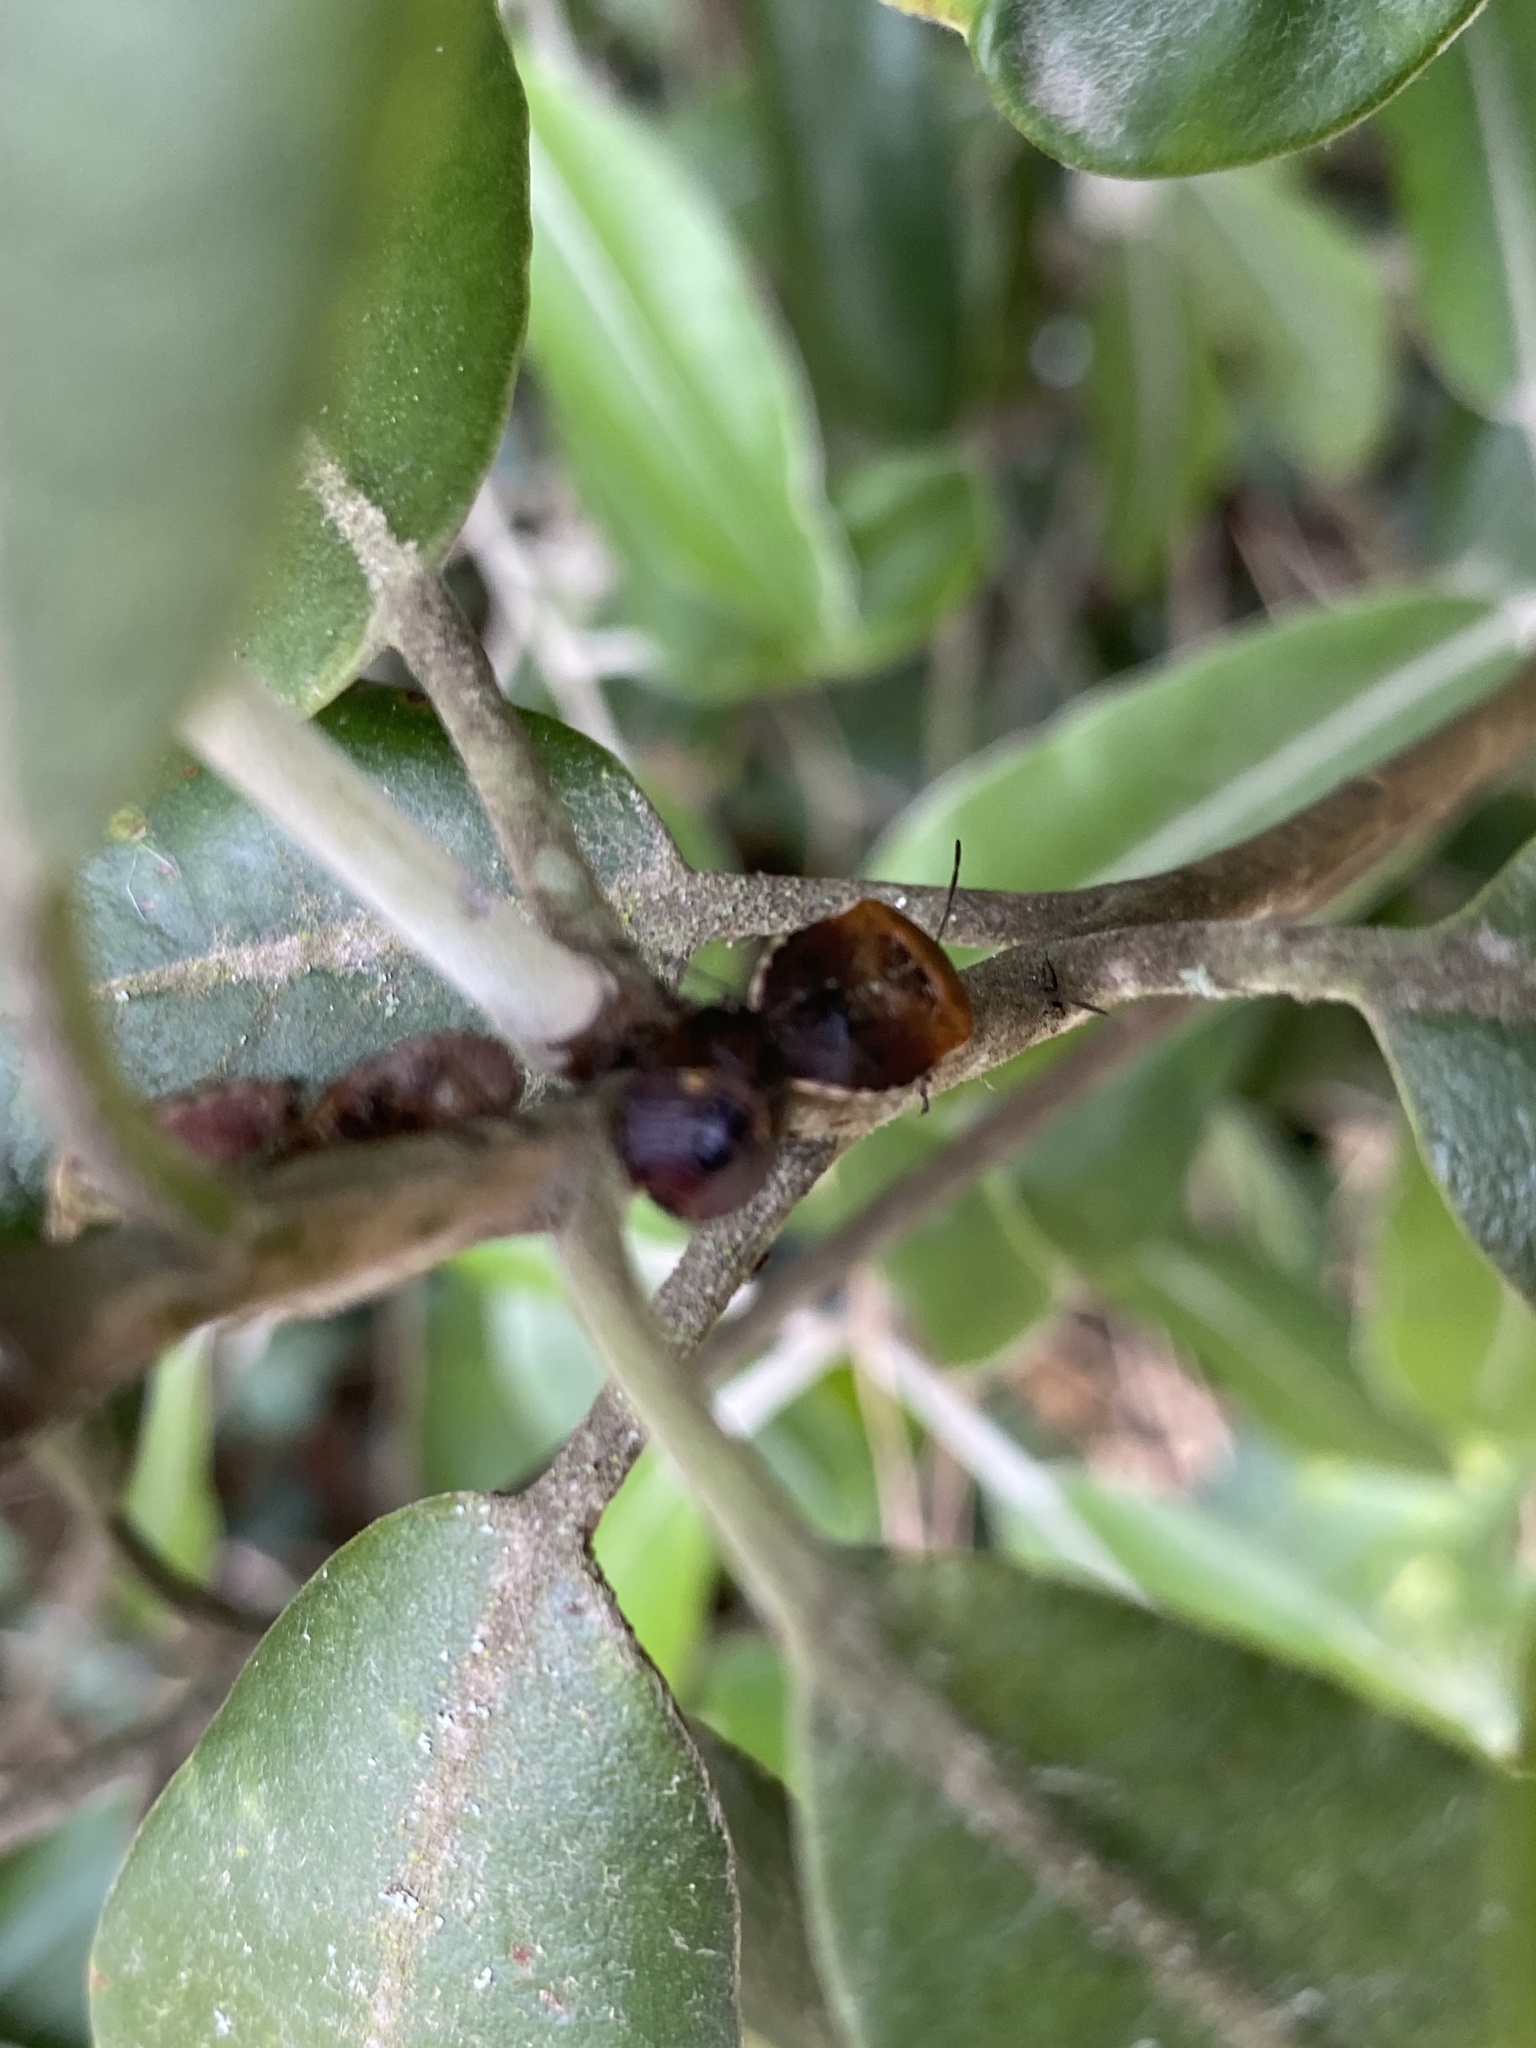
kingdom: Animalia
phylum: Arthropoda
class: Insecta
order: Hemiptera
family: Pentatomidae
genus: Monteithiella
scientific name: Monteithiella
